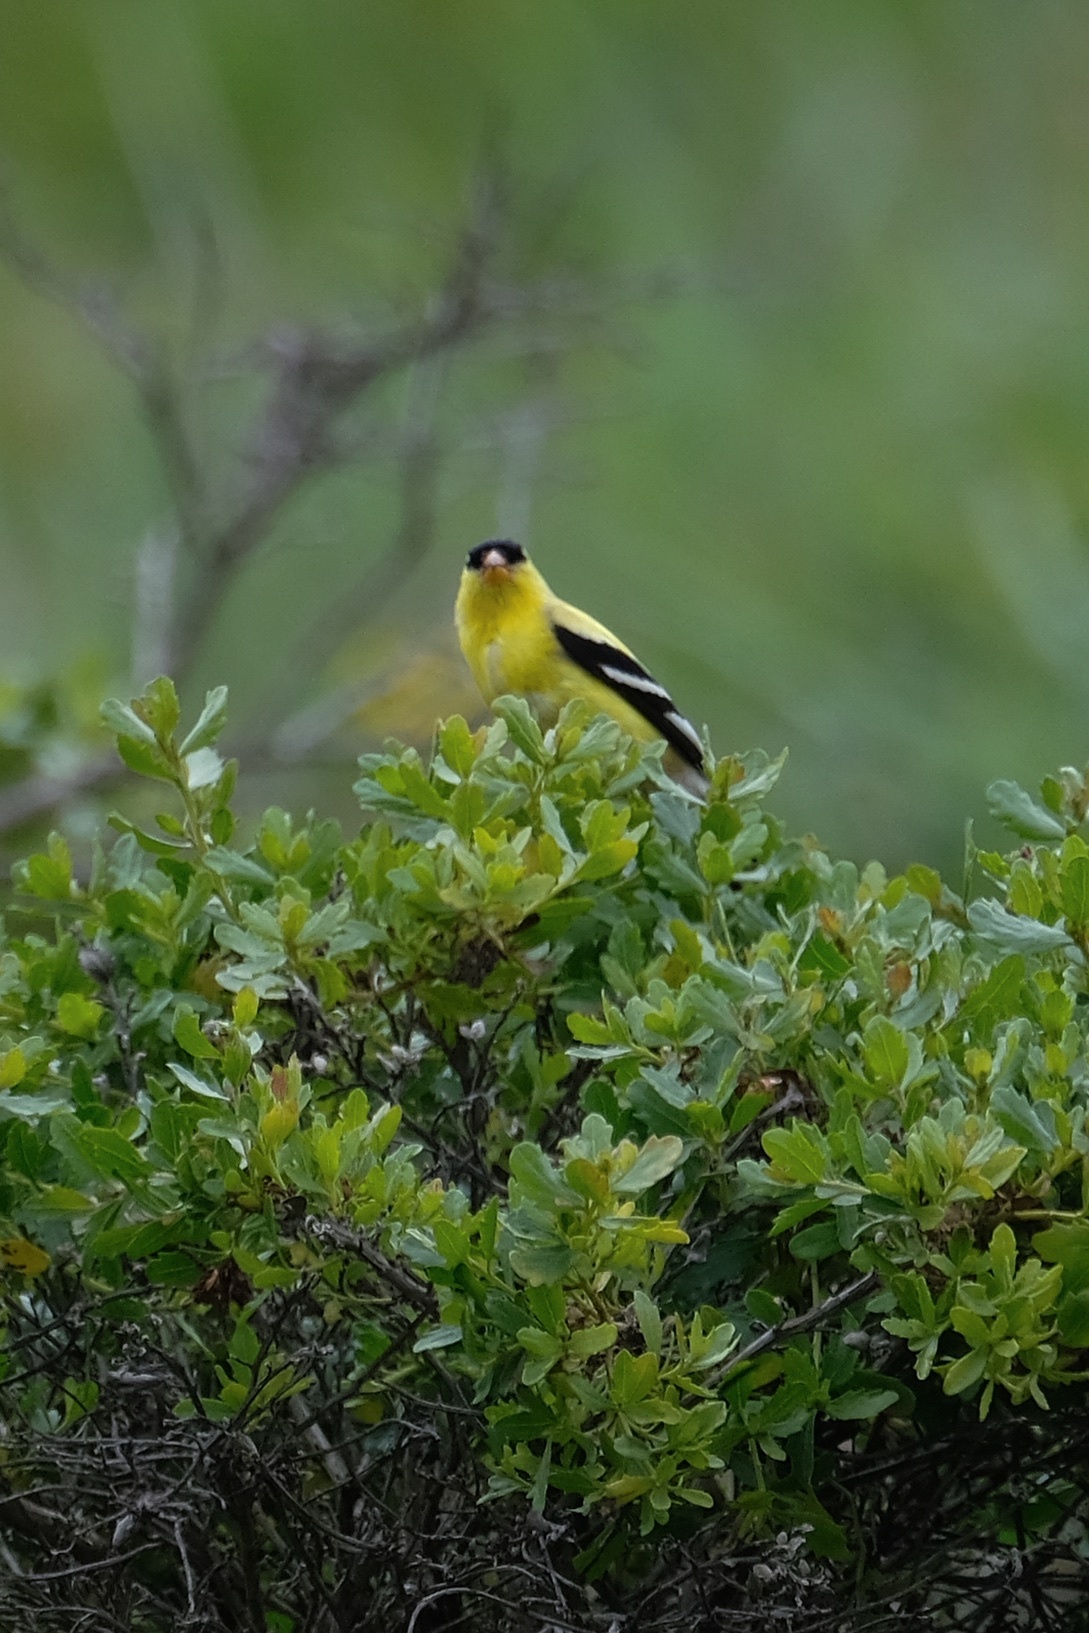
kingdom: Animalia
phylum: Chordata
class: Aves
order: Passeriformes
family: Fringillidae
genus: Spinus
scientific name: Spinus tristis
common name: American goldfinch
